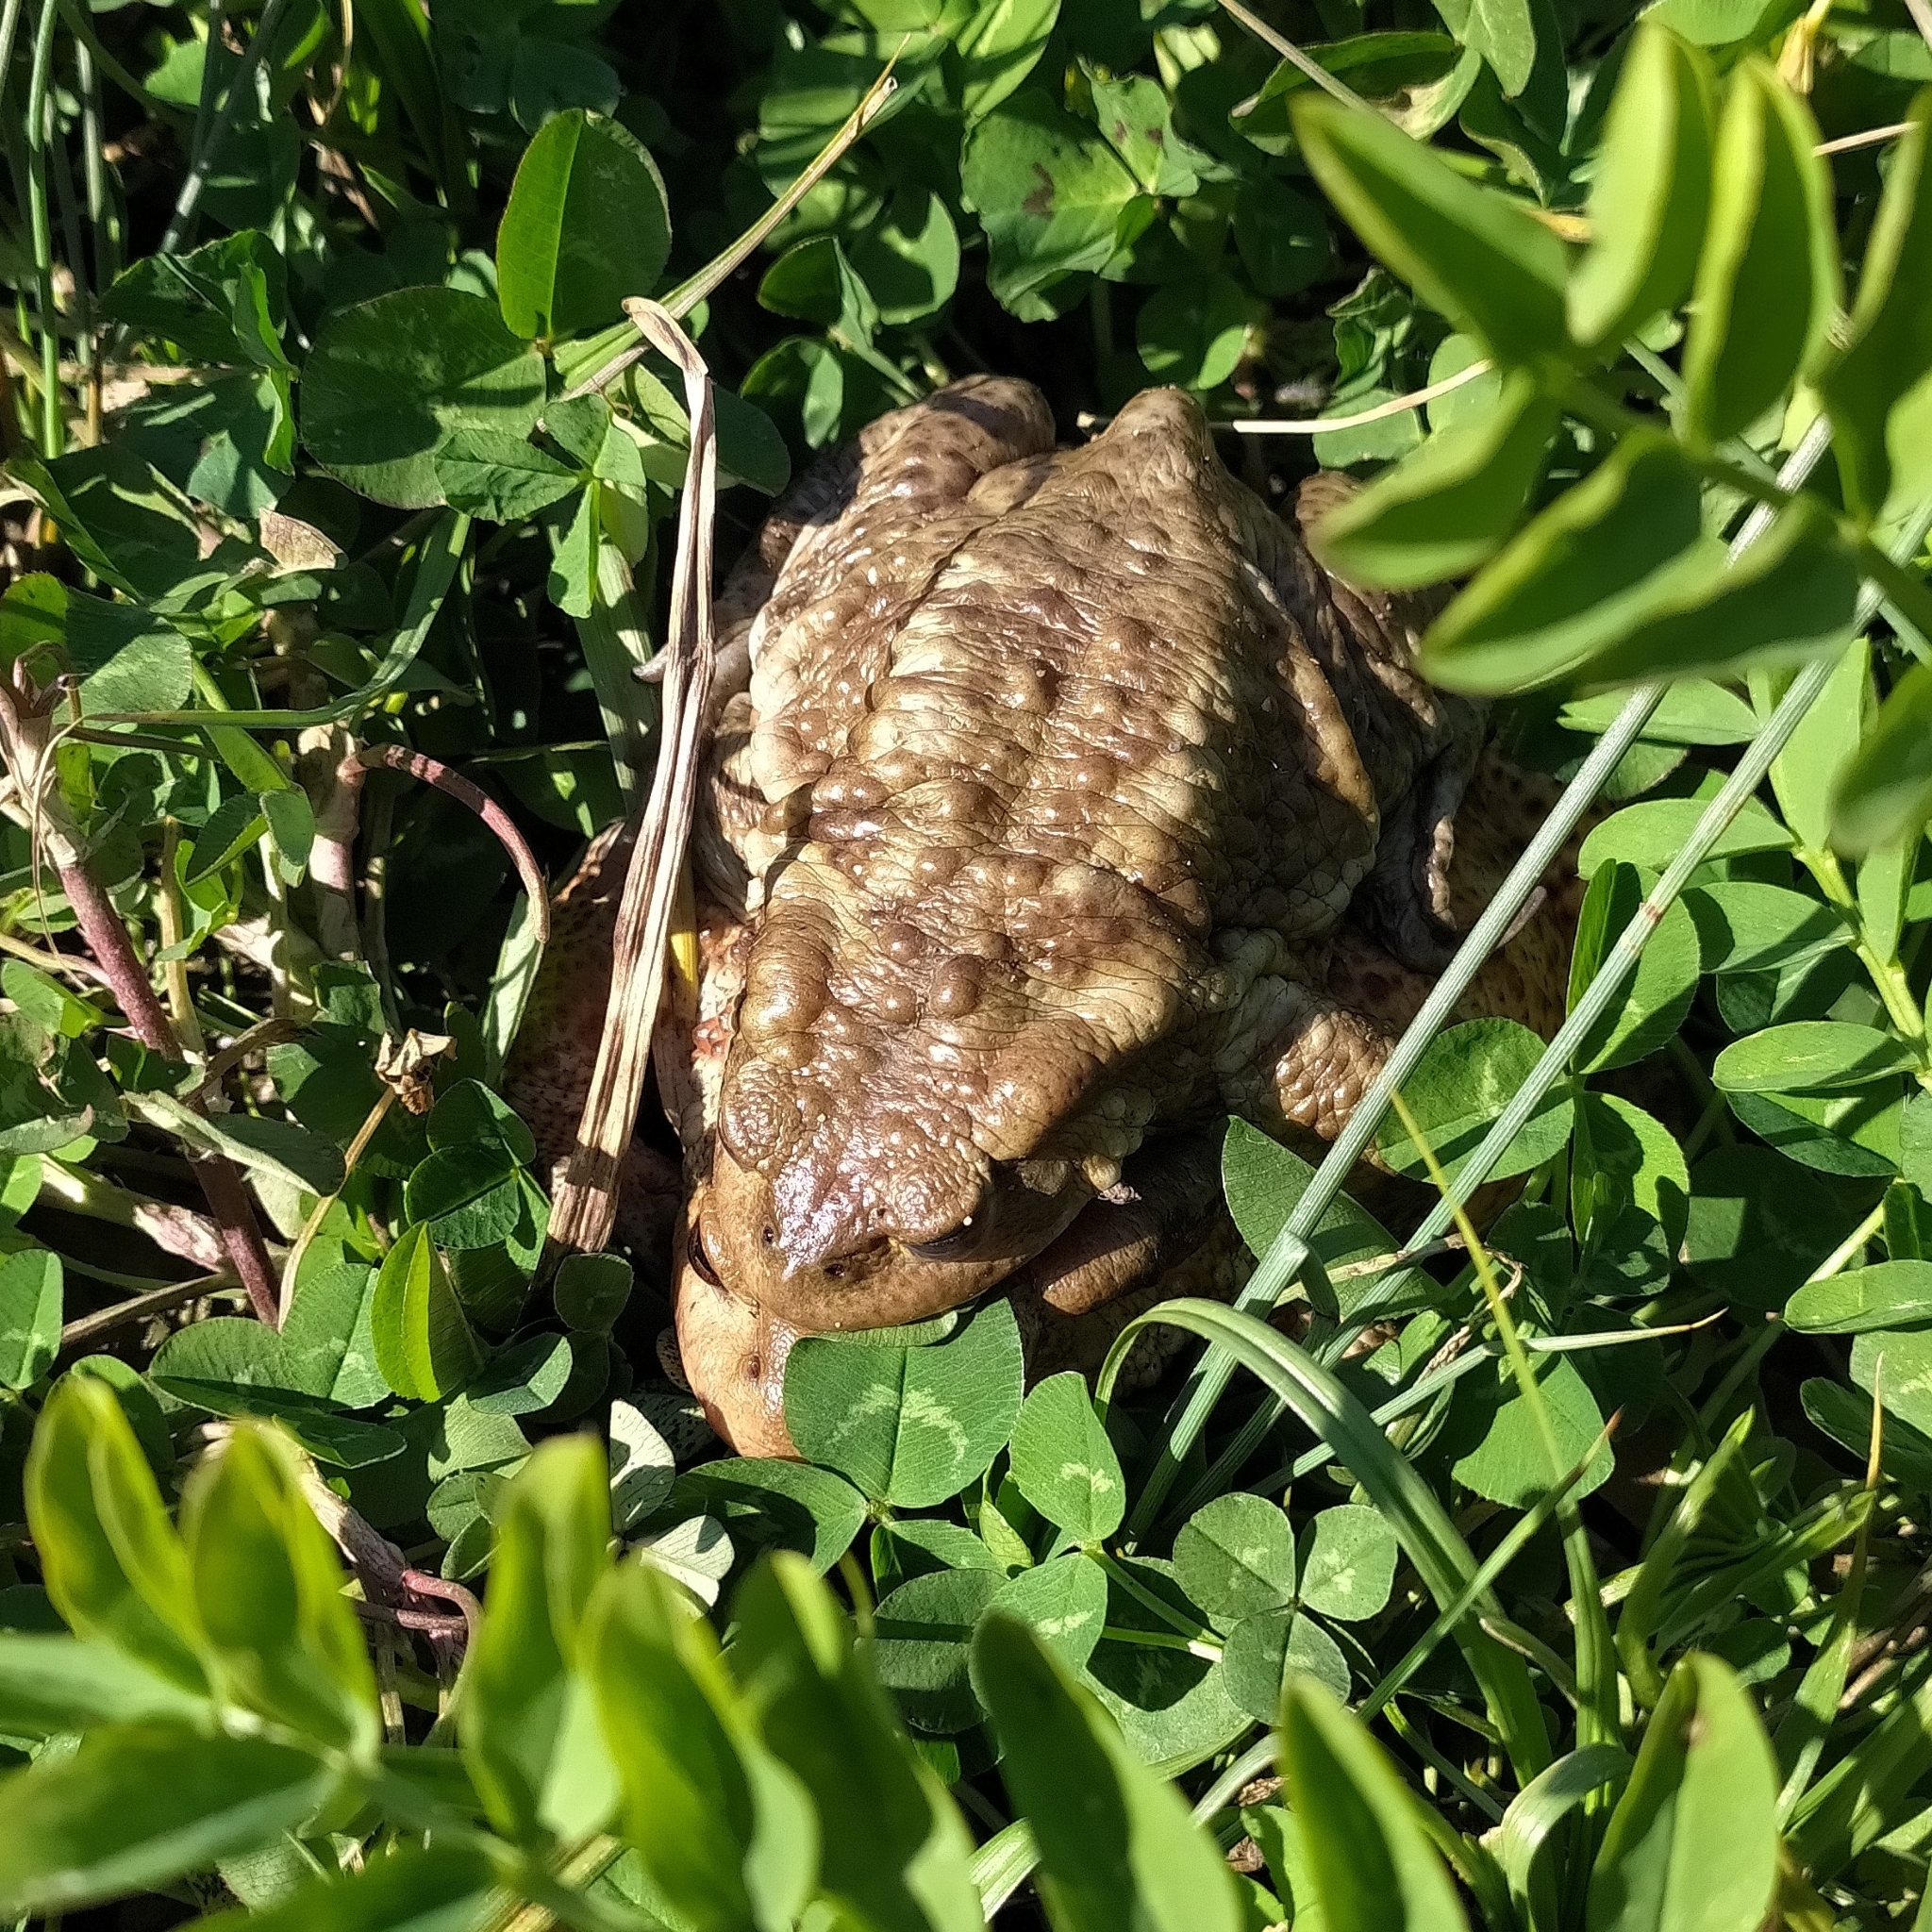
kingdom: Animalia
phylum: Chordata
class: Amphibia
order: Anura
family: Bufonidae
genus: Bufo
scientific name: Bufo bufo
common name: Common toad
